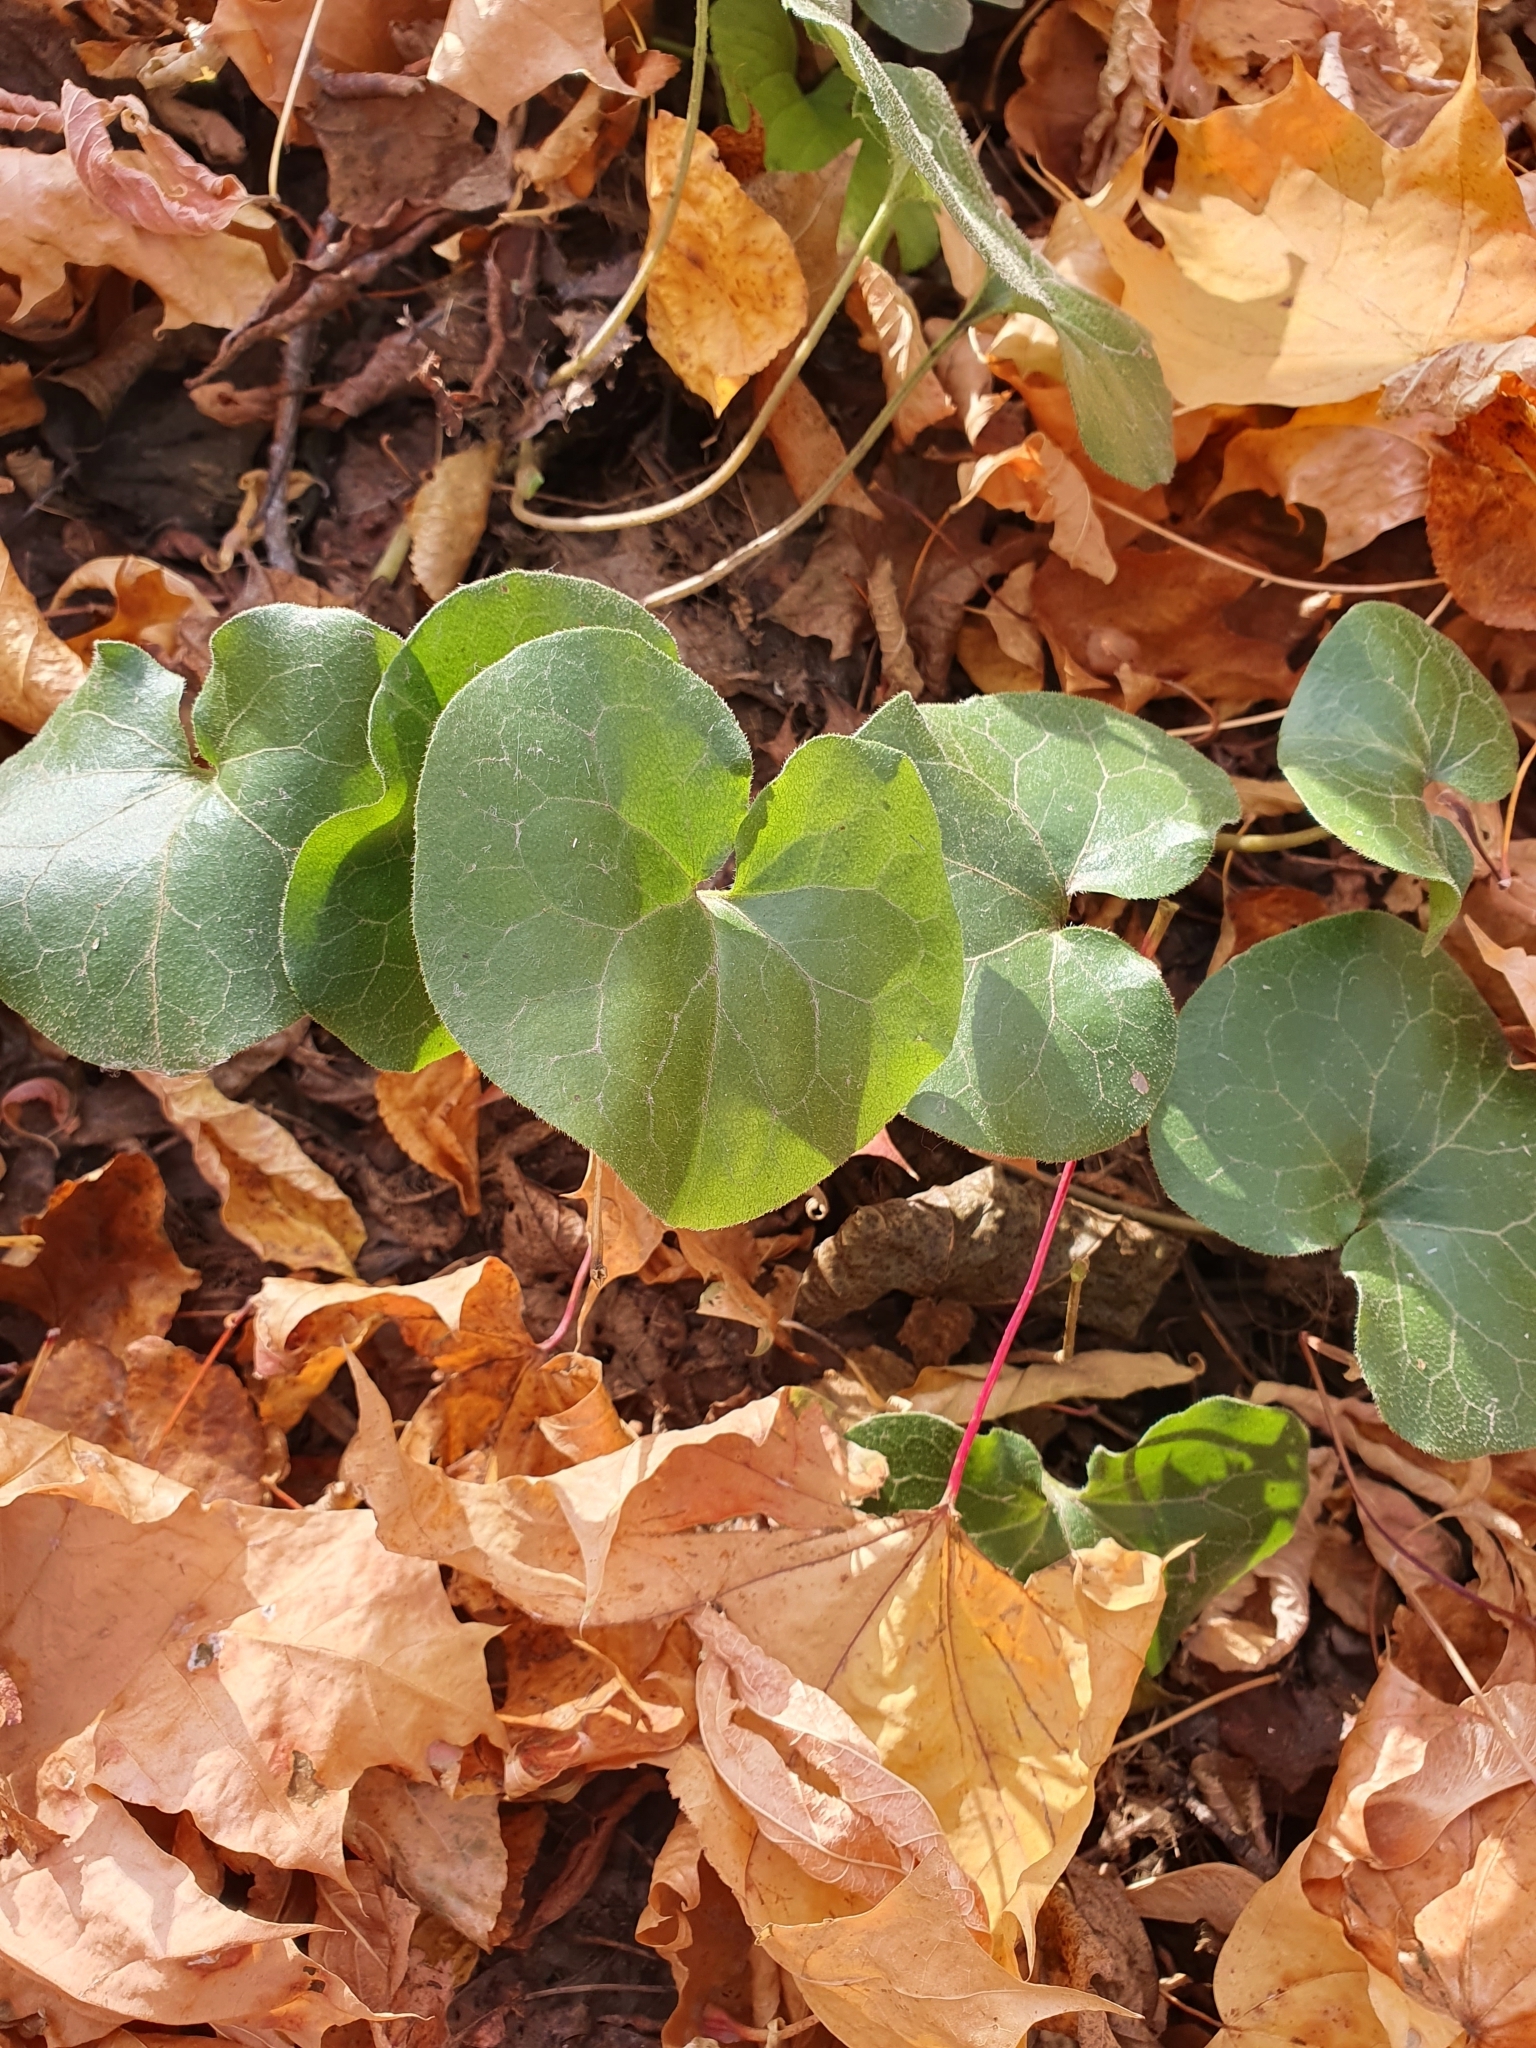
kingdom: Plantae
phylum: Tracheophyta
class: Magnoliopsida
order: Piperales
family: Aristolochiaceae
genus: Asarum
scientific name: Asarum europaeum
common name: Asarabacca
